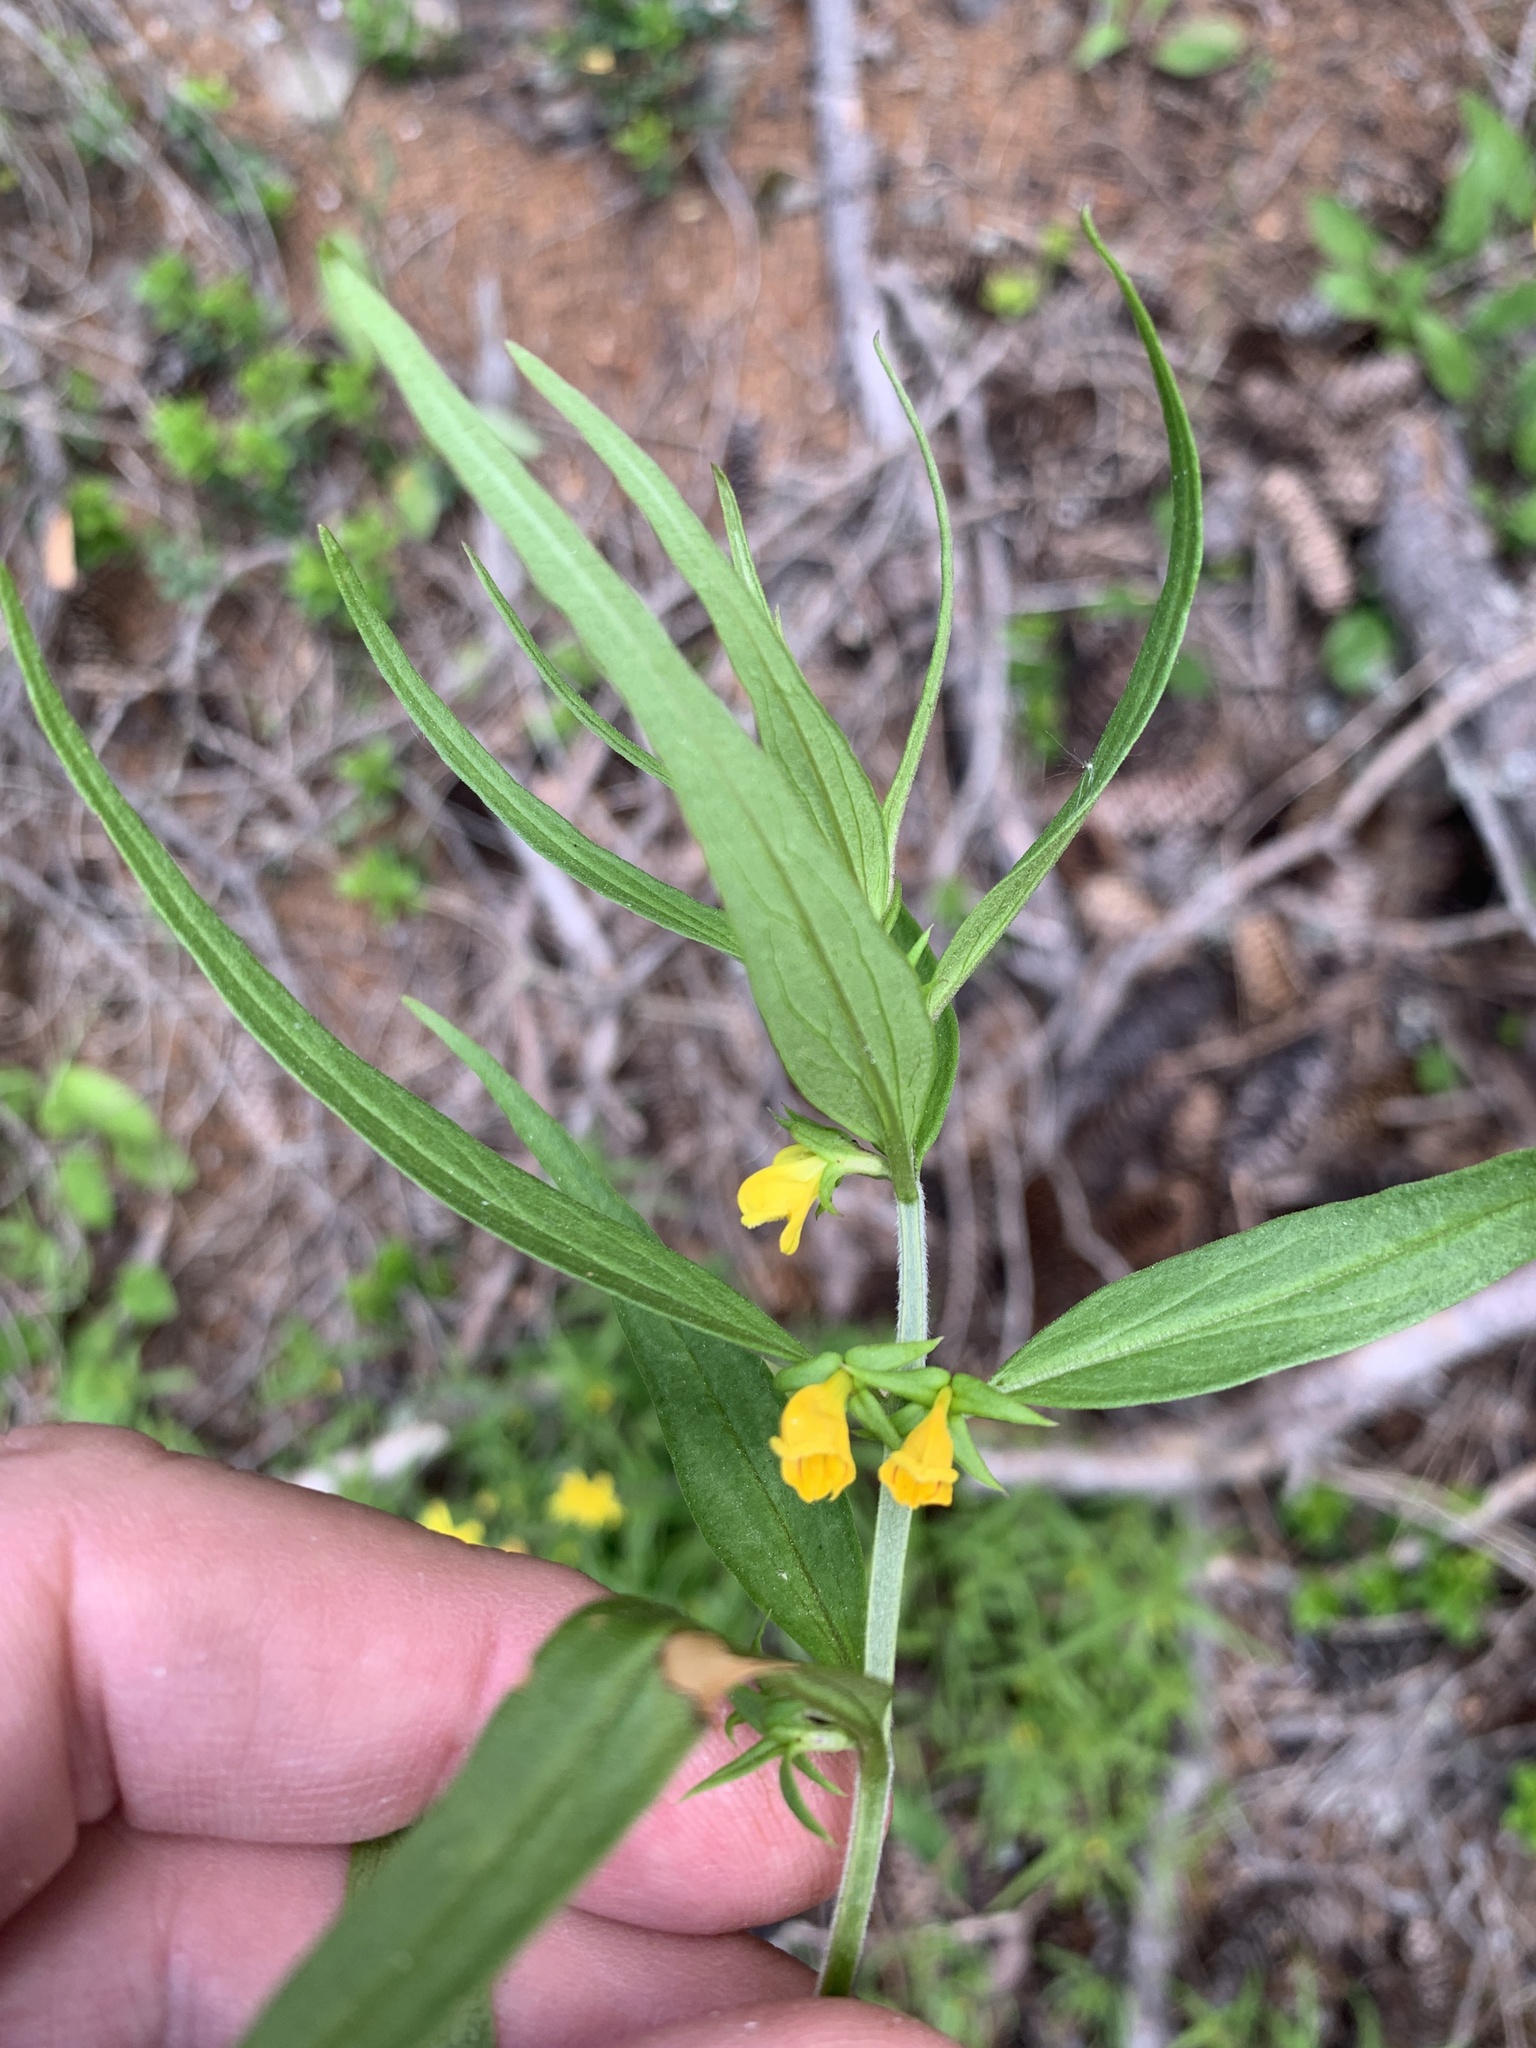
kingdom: Plantae
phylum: Tracheophyta
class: Magnoliopsida
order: Lamiales
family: Orobanchaceae
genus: Melampyrum
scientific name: Melampyrum sylvaticum
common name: Small cow-wheat
